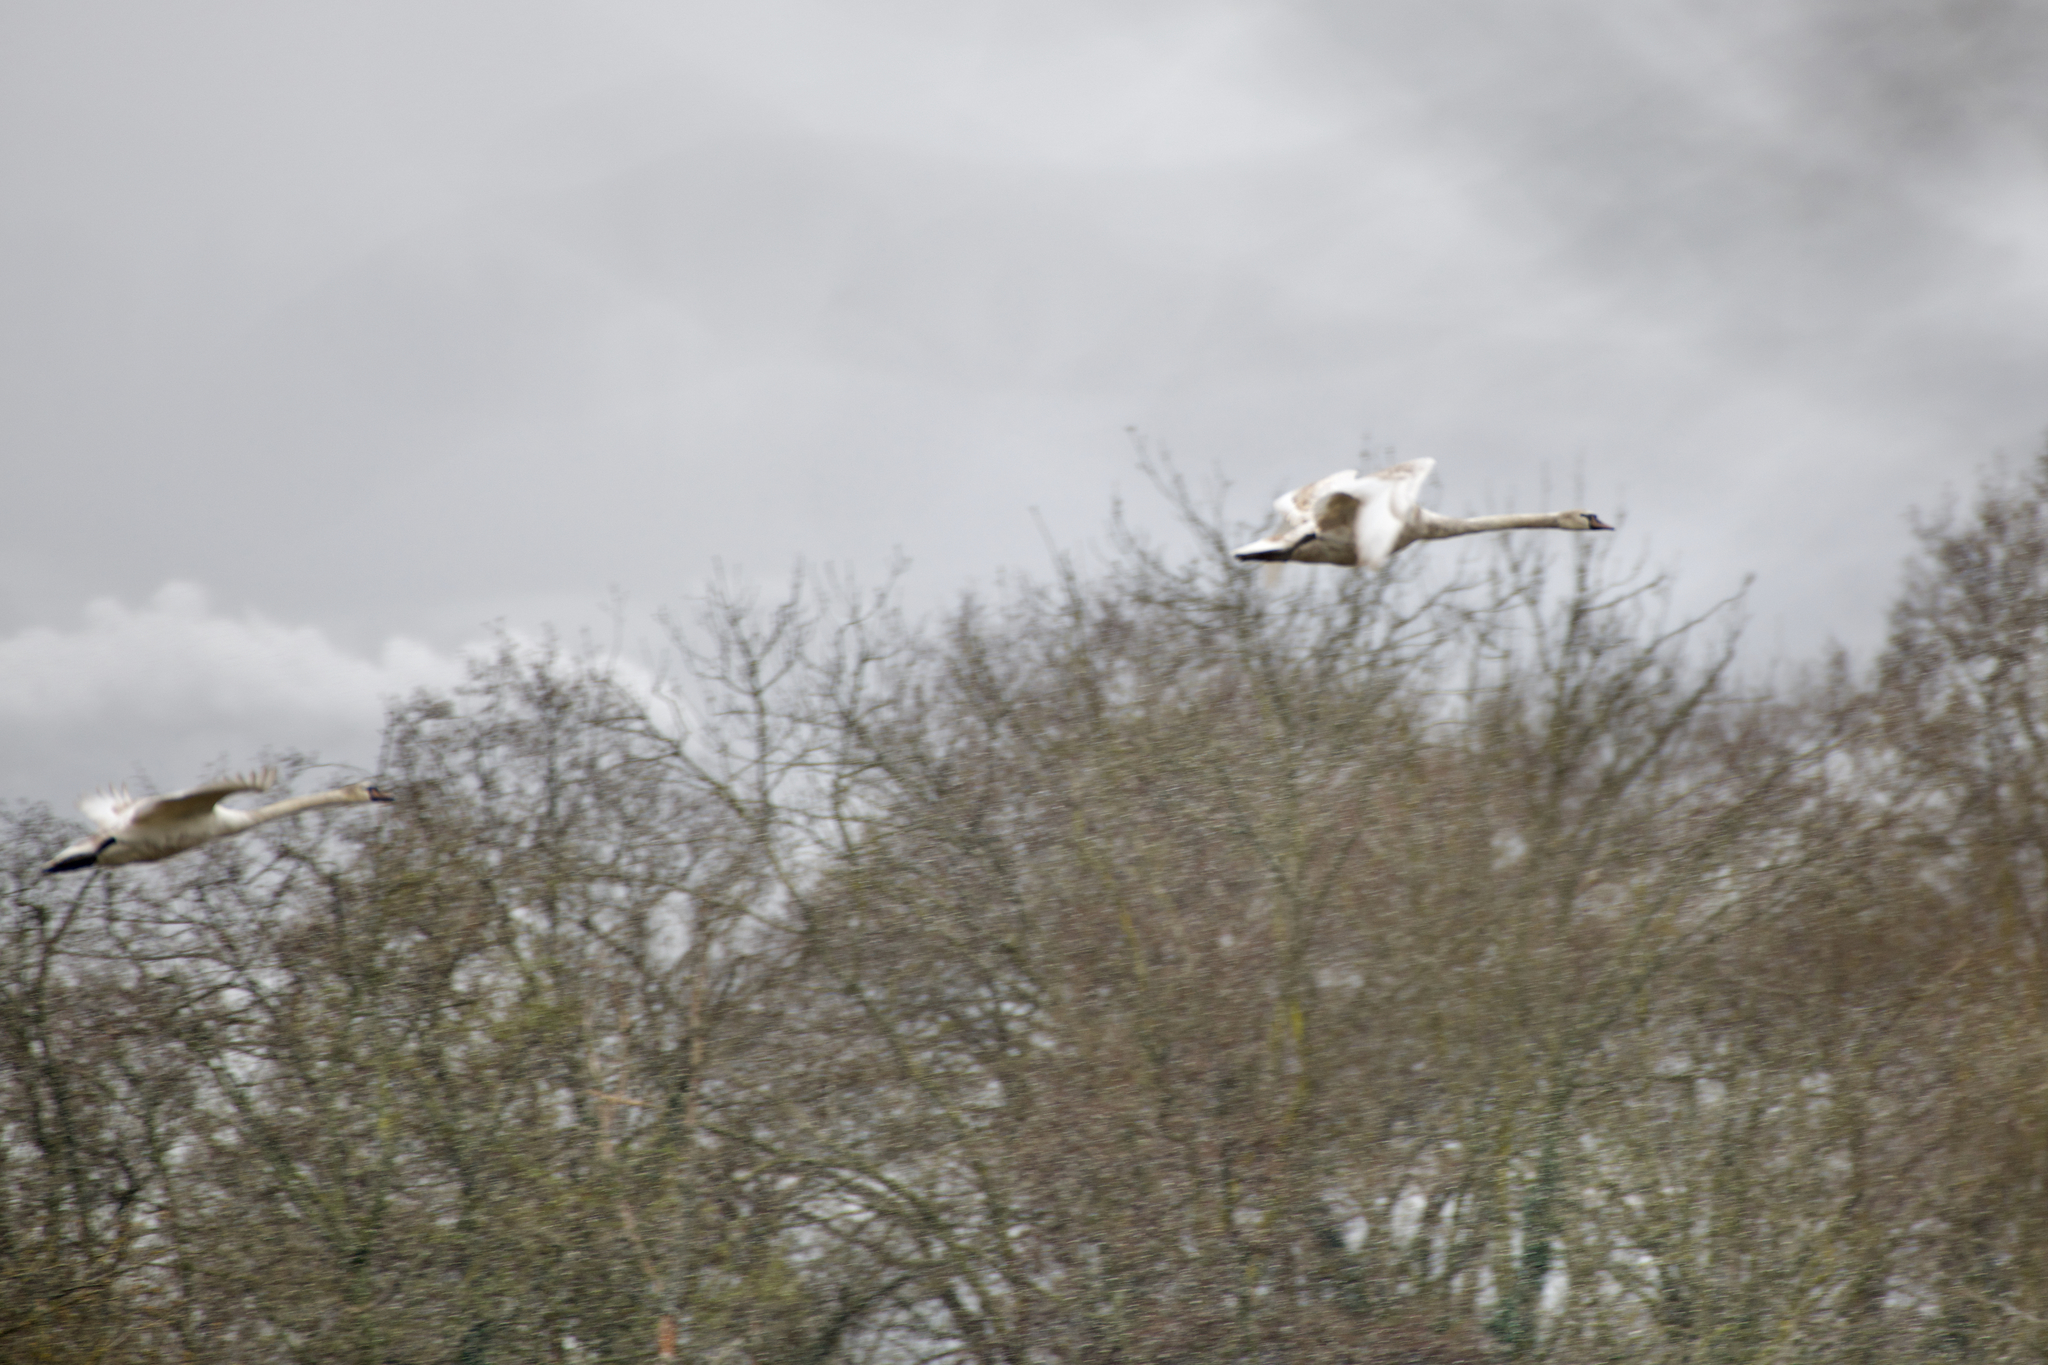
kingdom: Animalia
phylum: Chordata
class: Aves
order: Anseriformes
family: Anatidae
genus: Cygnus
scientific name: Cygnus olor
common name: Mute swan
